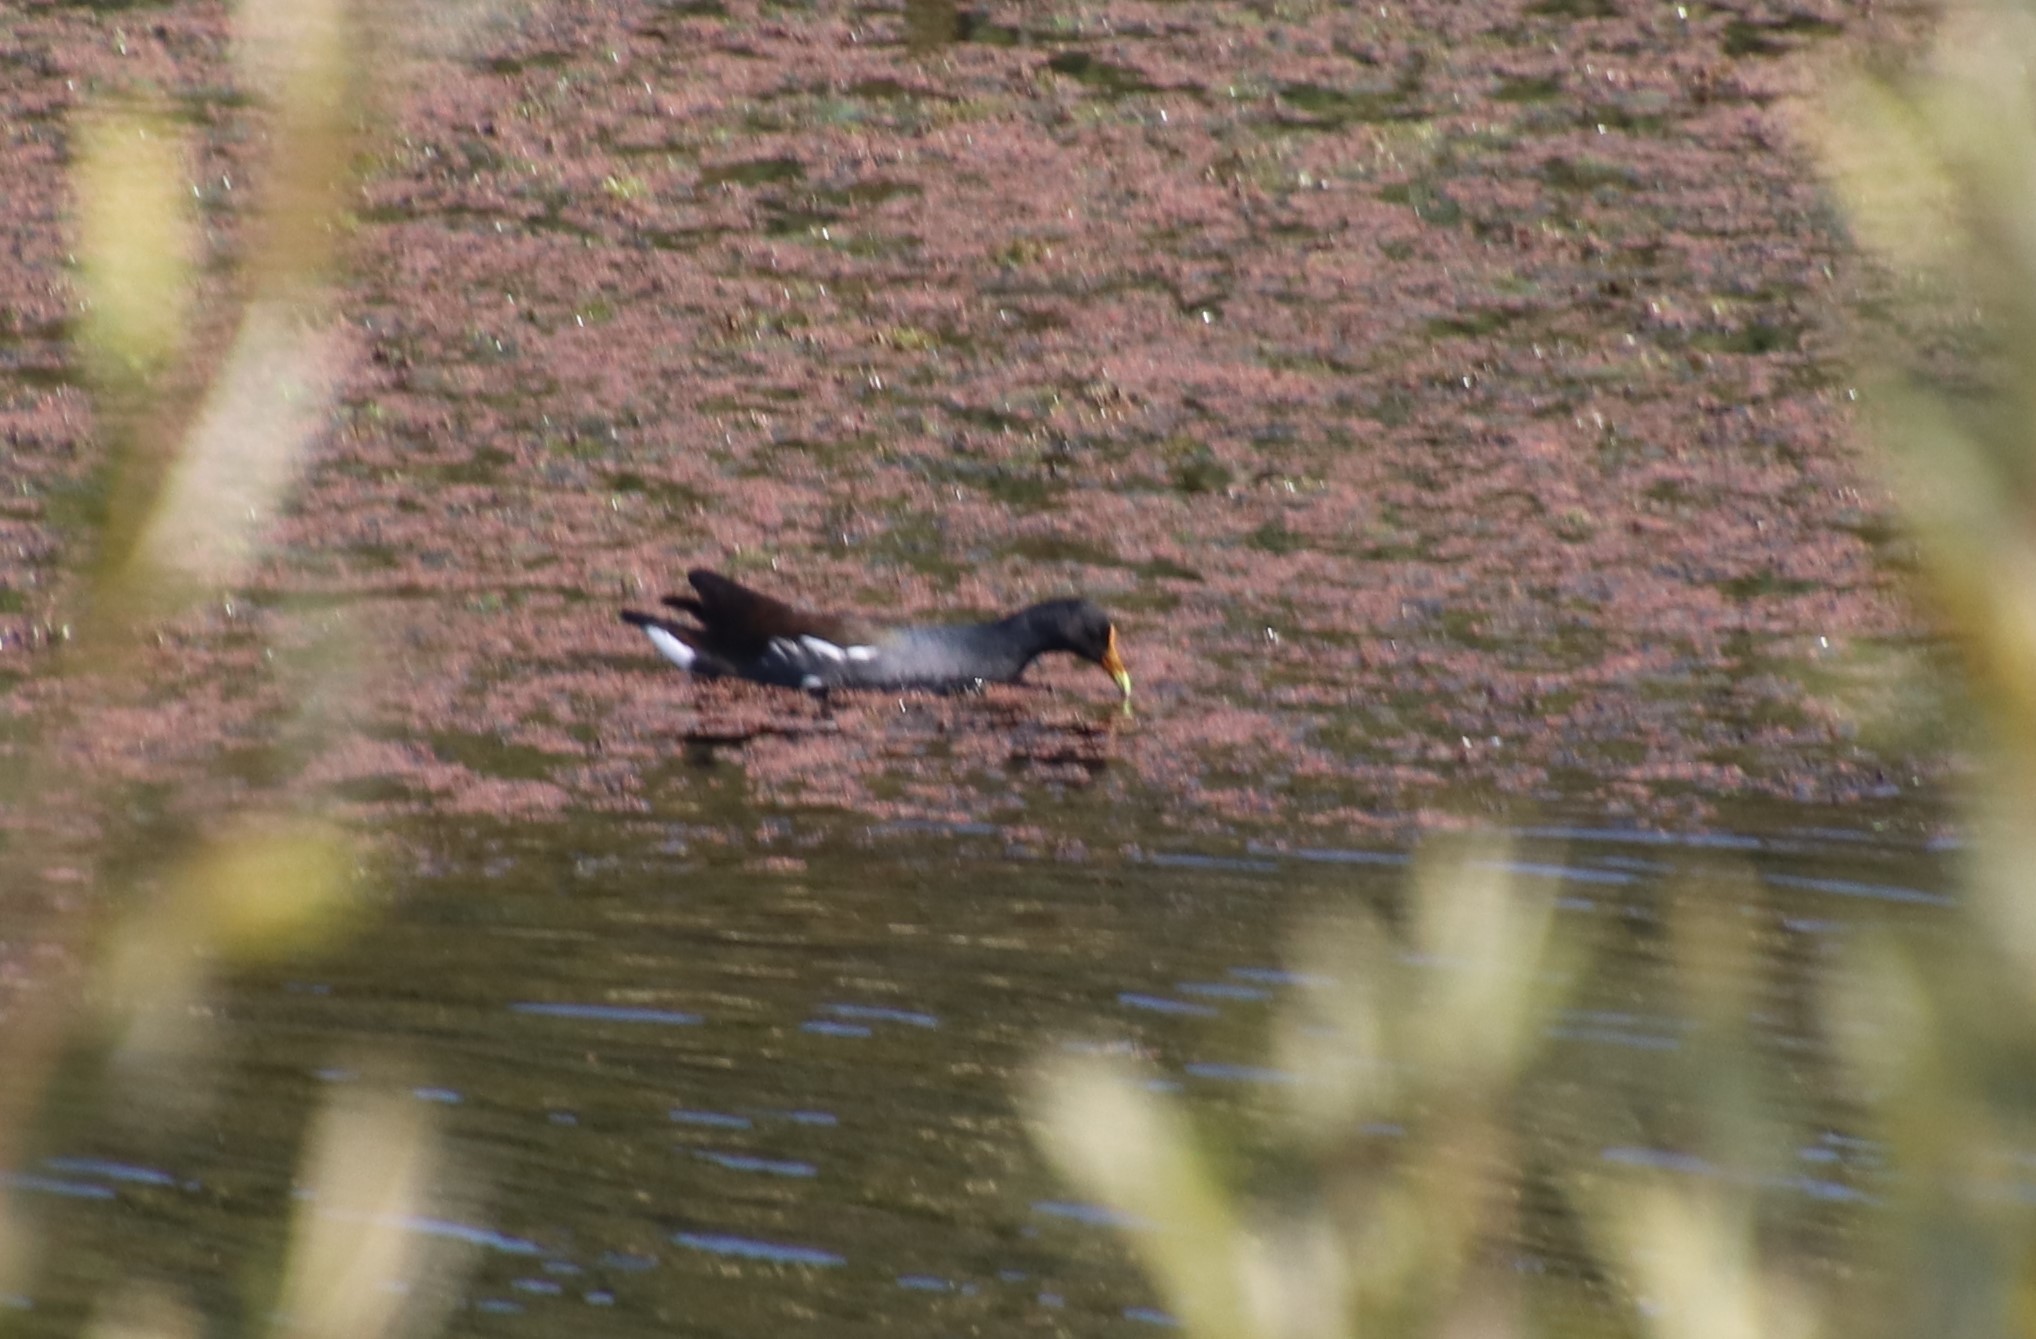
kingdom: Animalia
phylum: Chordata
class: Aves
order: Gruiformes
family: Rallidae
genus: Gallinula
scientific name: Gallinula chloropus
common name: Common moorhen
